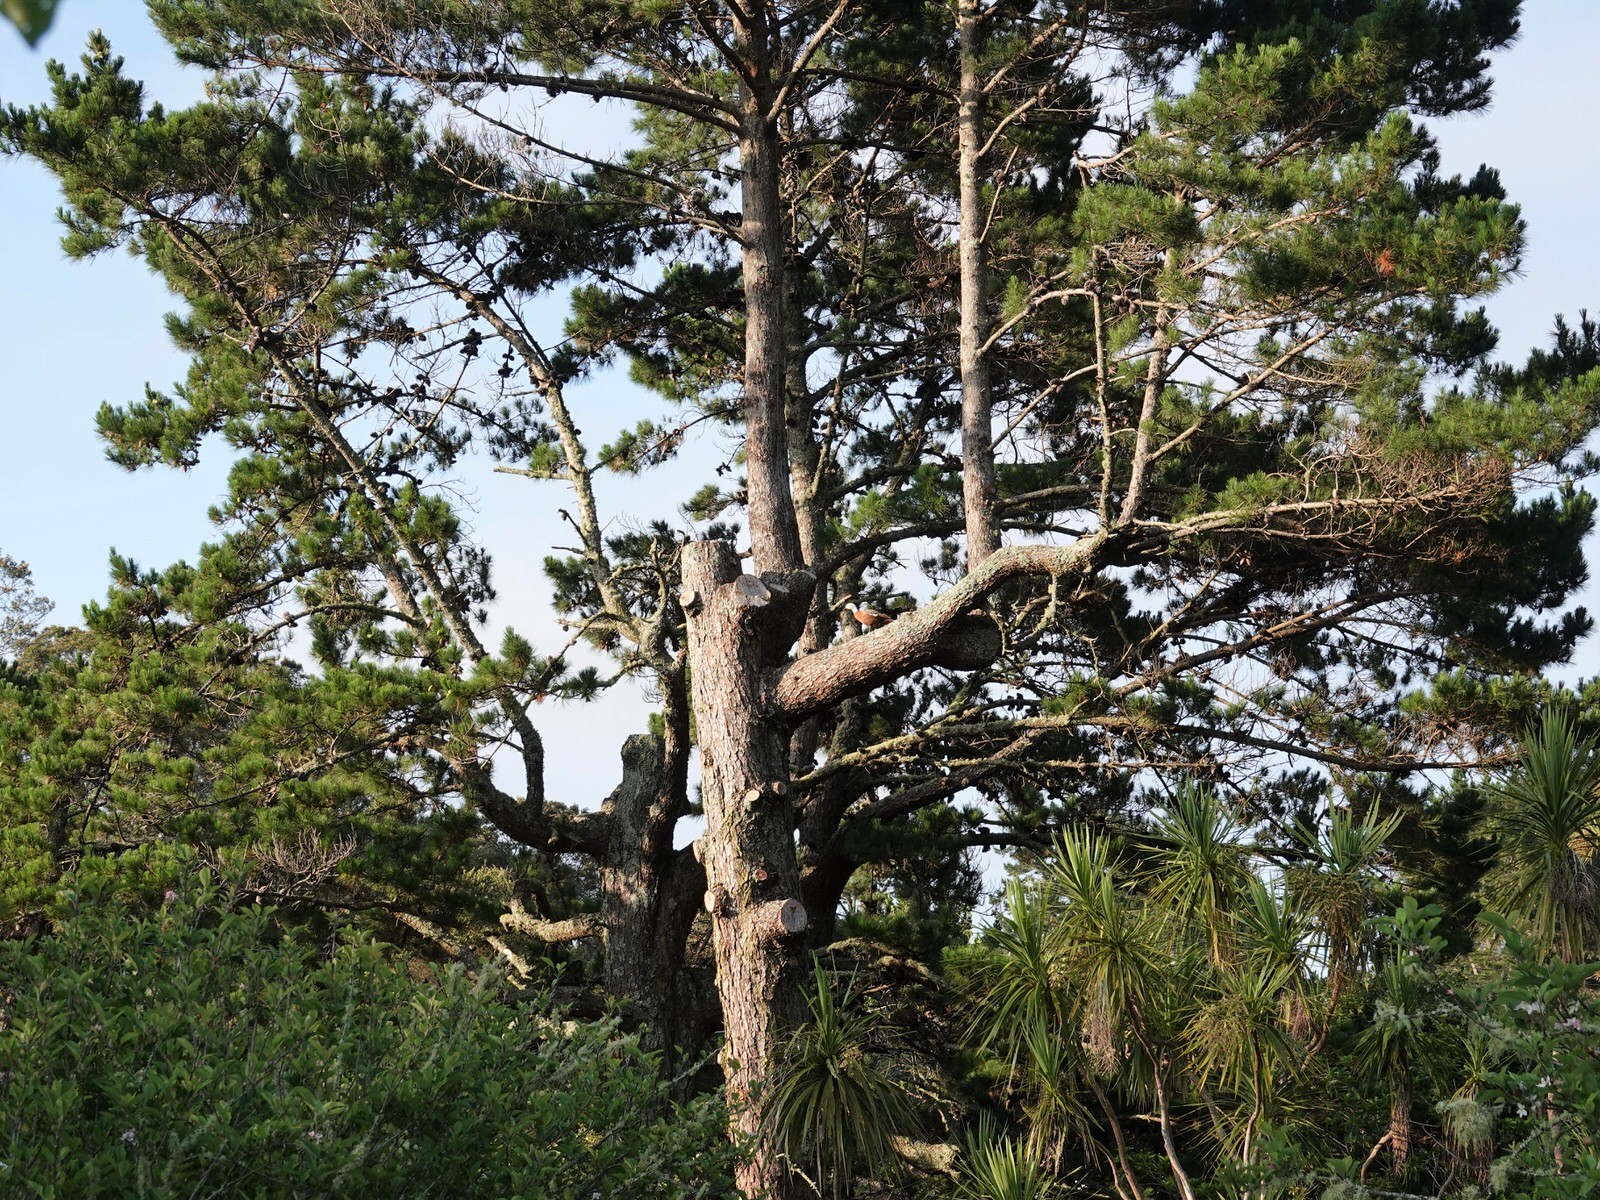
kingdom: Animalia
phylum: Chordata
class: Aves
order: Anseriformes
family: Anatidae
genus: Tadorna
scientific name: Tadorna variegata
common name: Paradise shelduck
